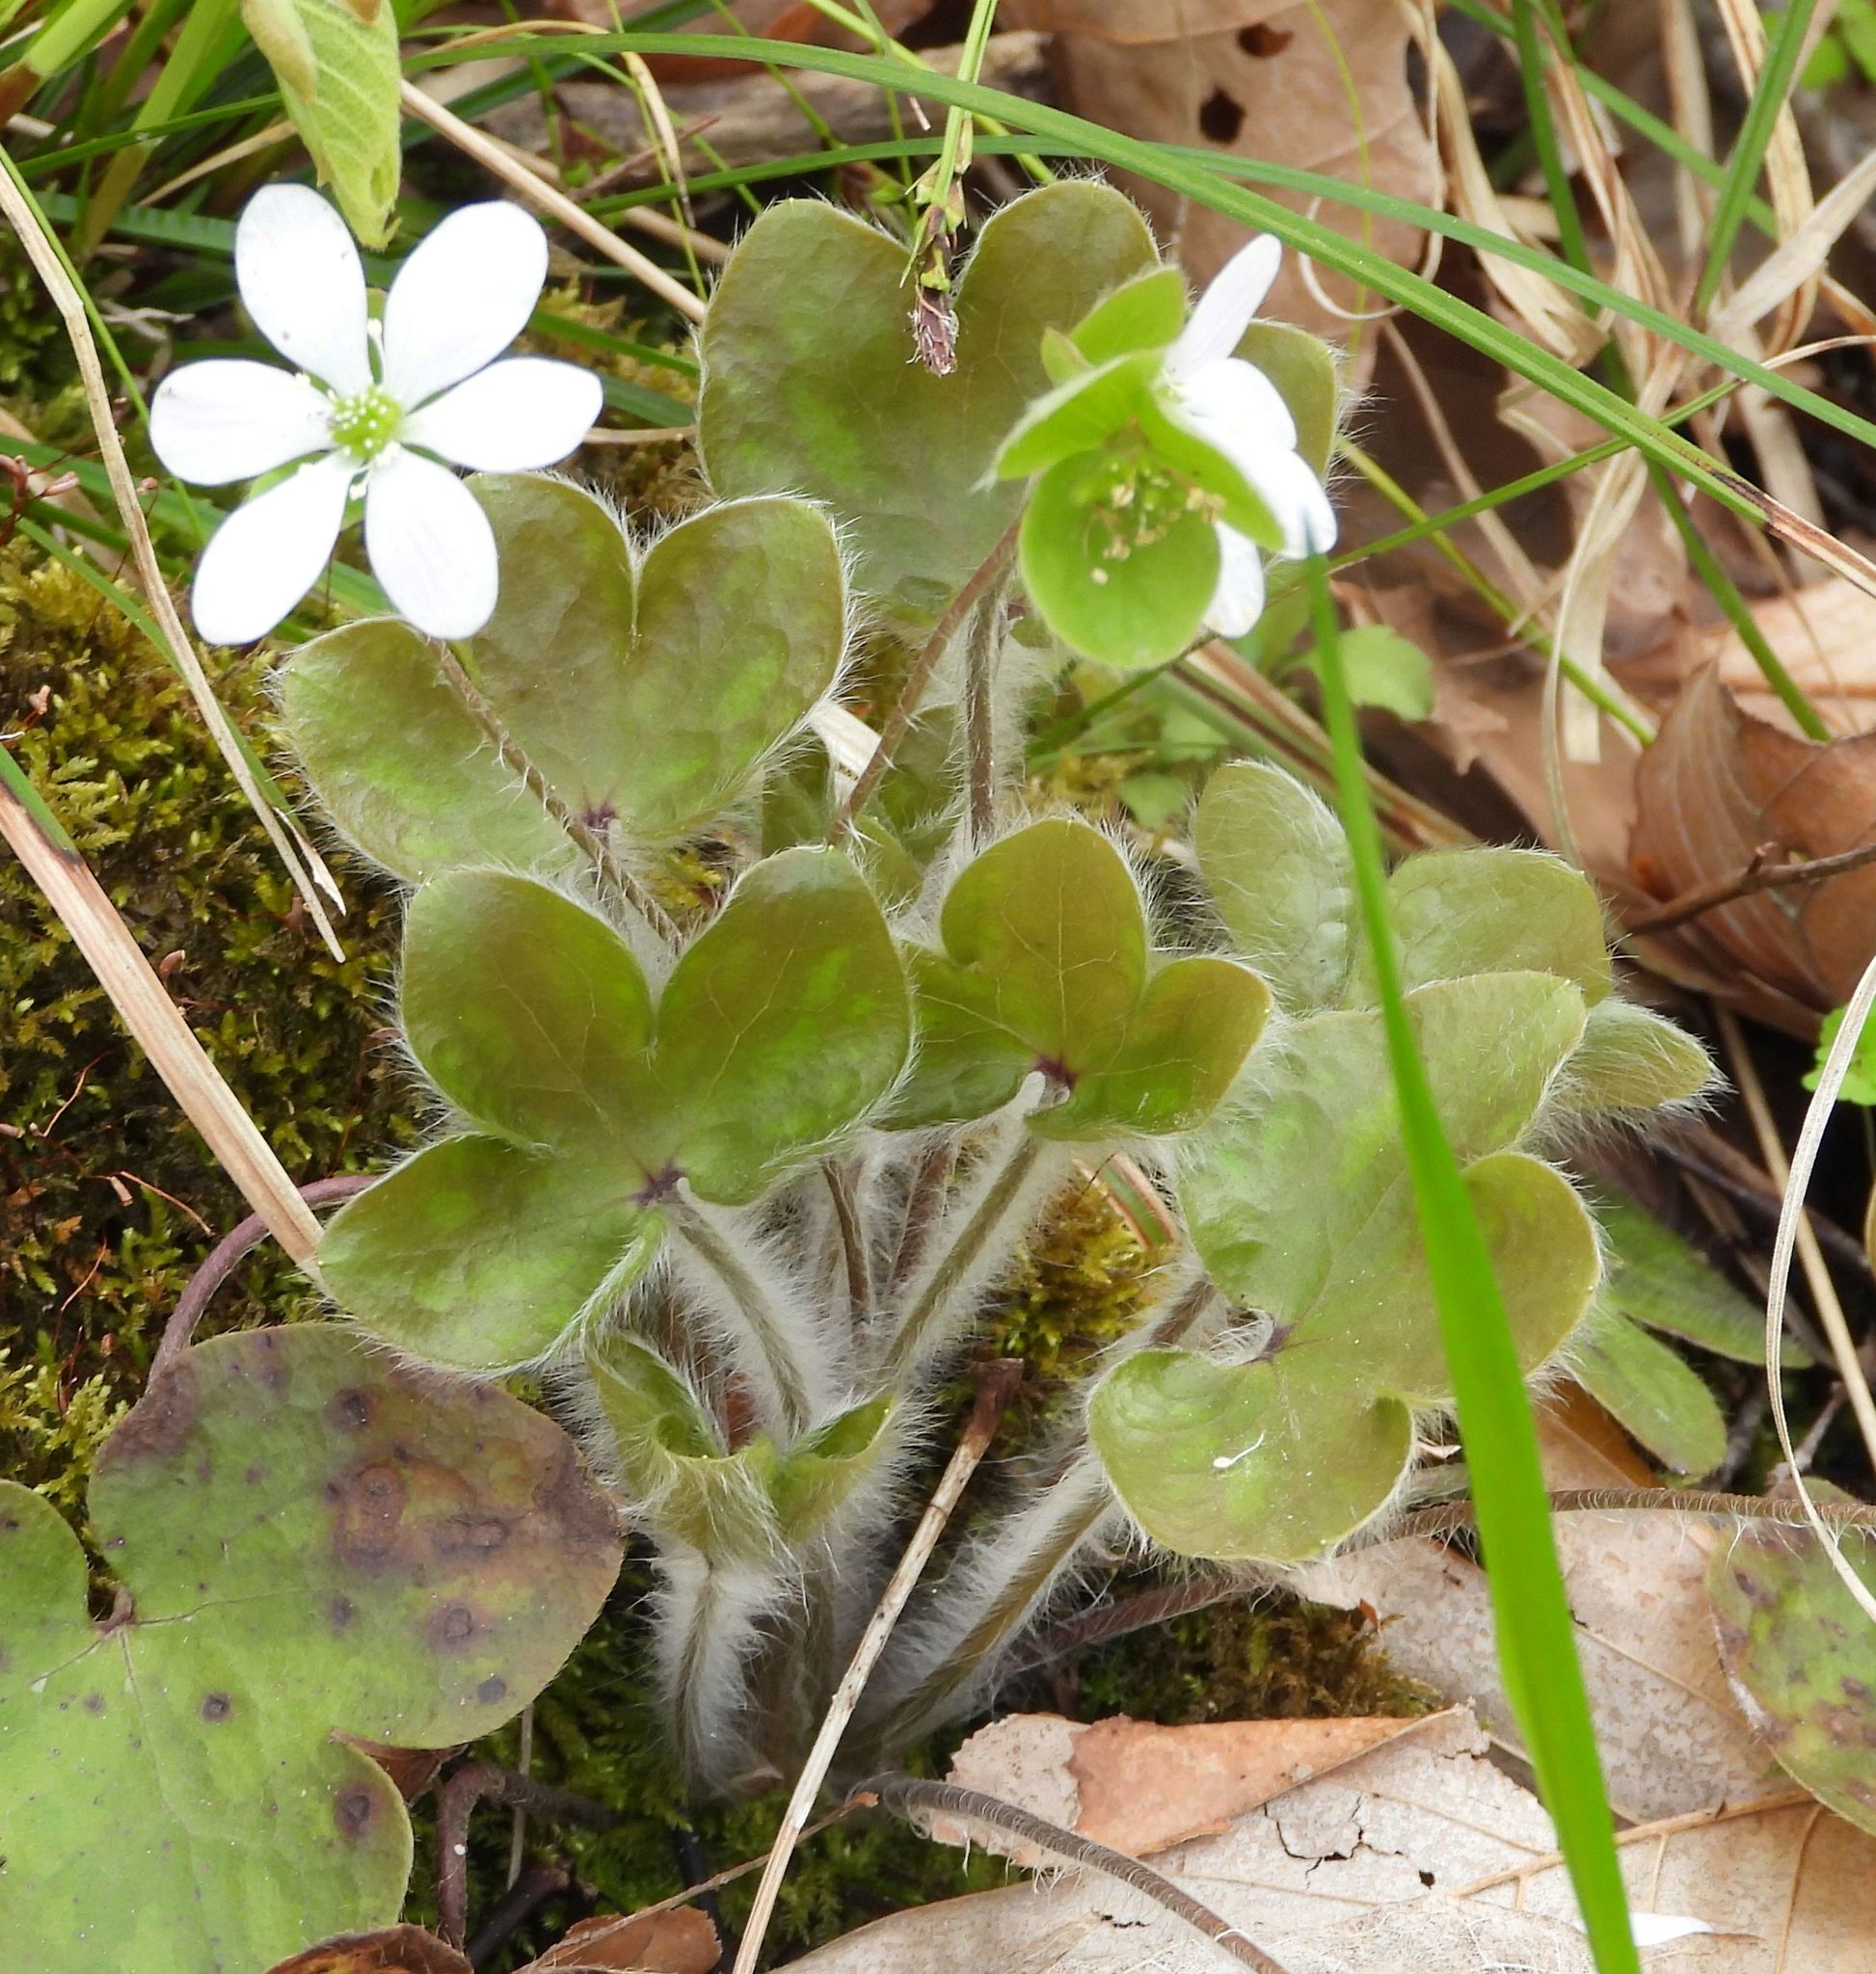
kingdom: Plantae
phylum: Tracheophyta
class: Magnoliopsida
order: Ranunculales
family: Ranunculaceae
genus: Hepatica
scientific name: Hepatica americana
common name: American hepatica
